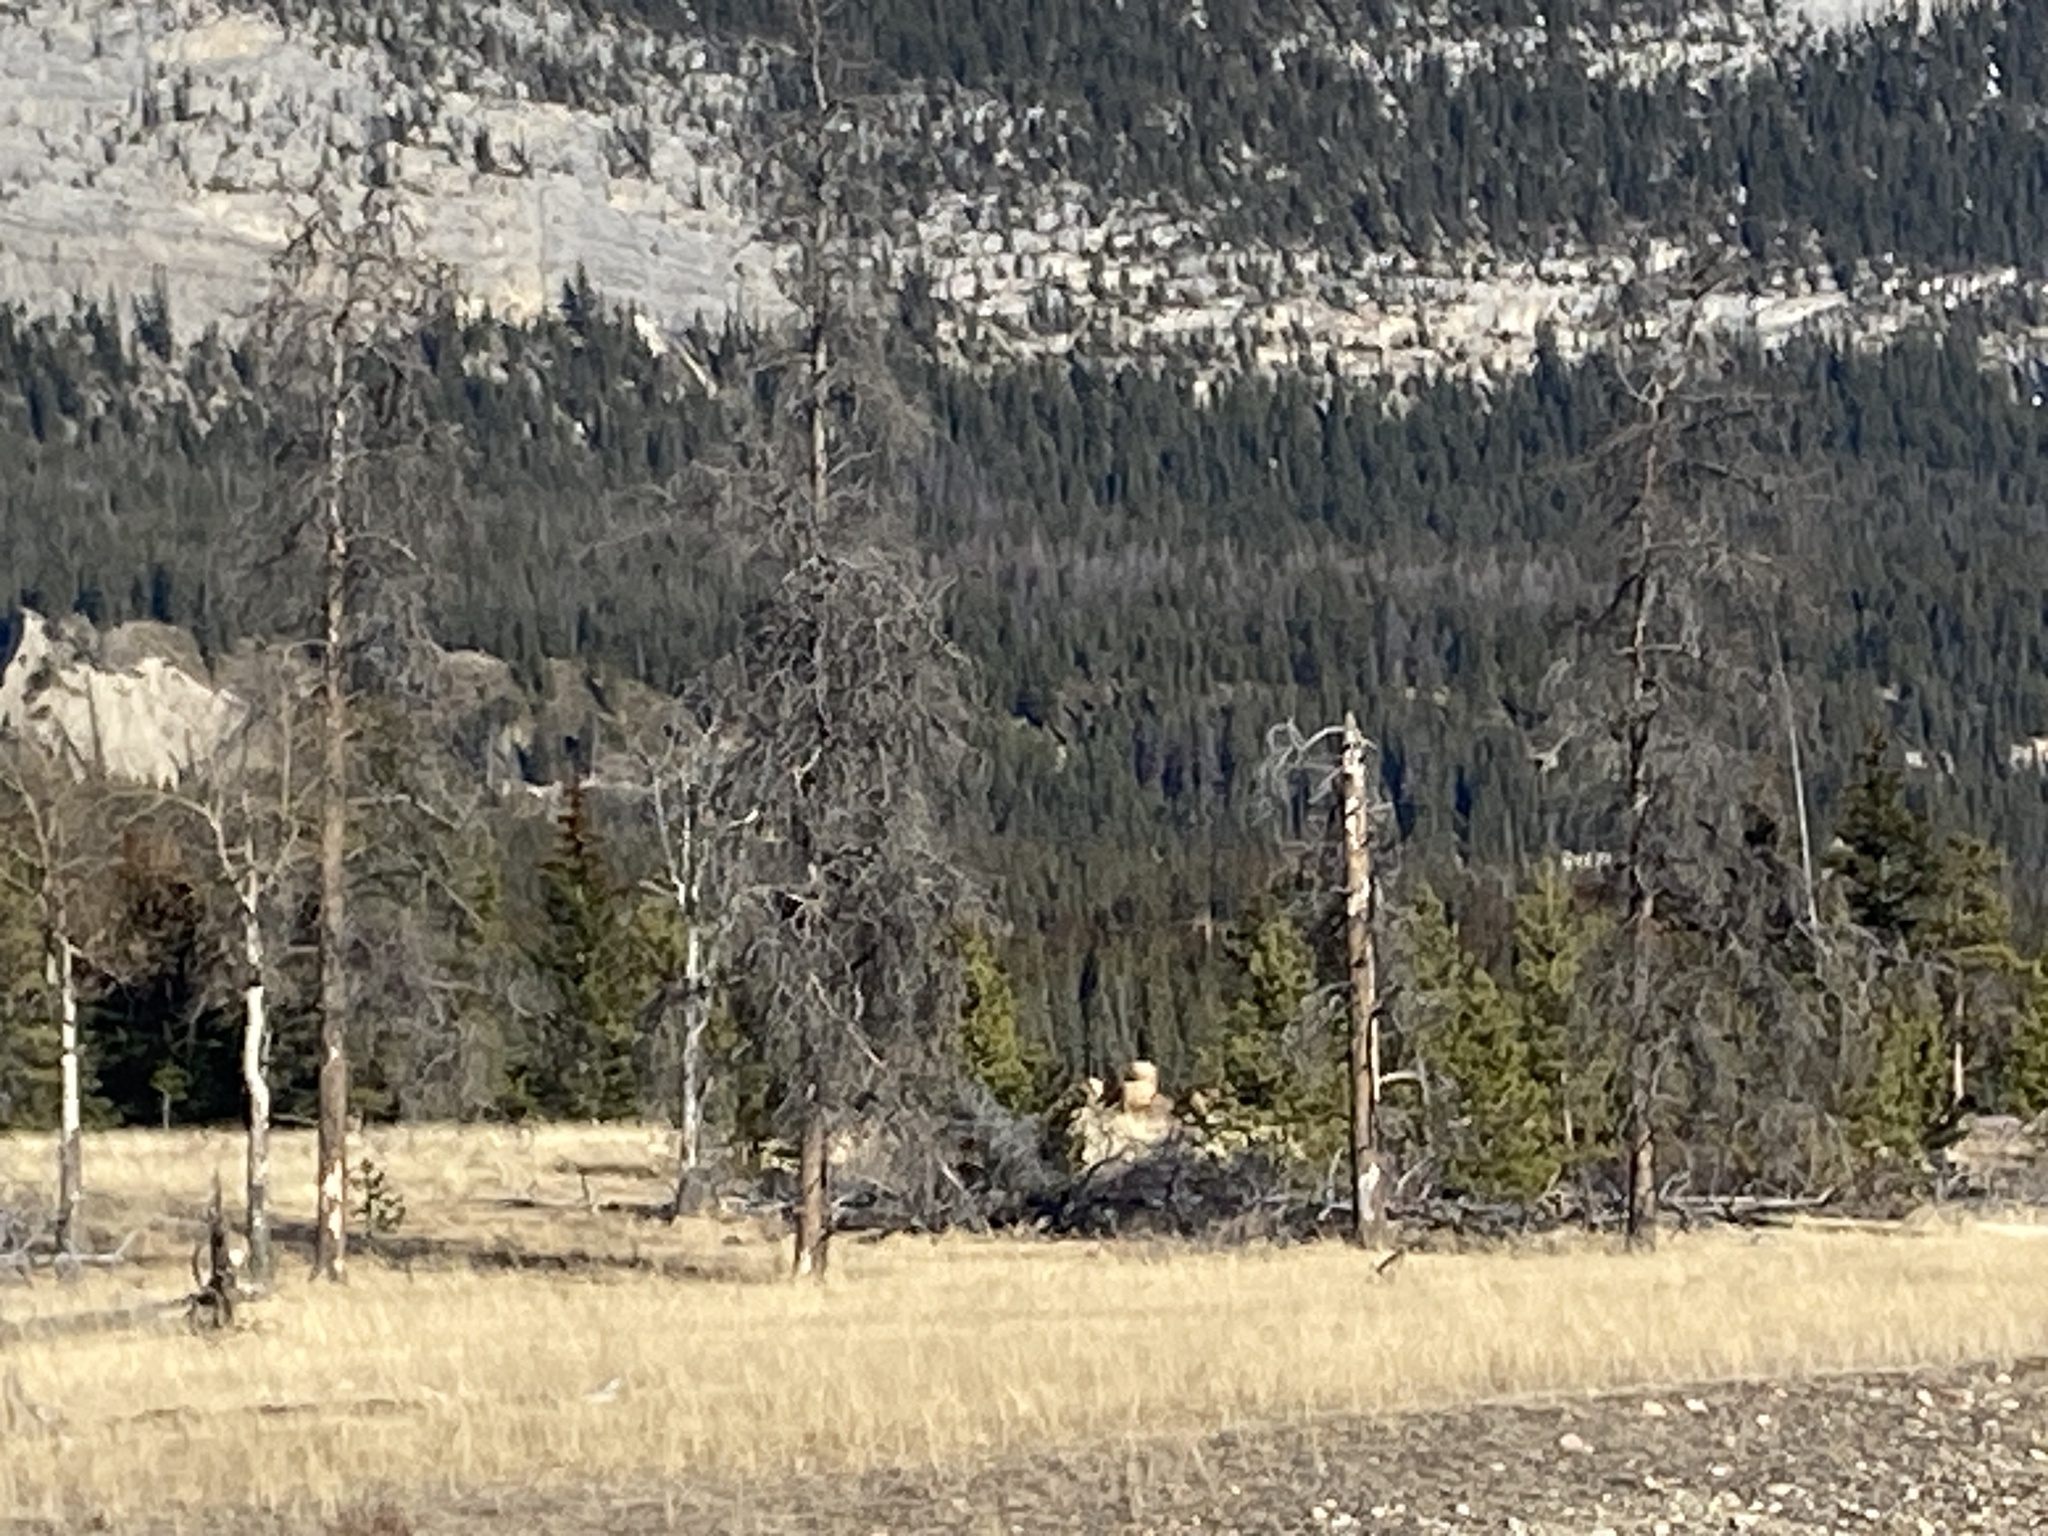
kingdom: Animalia
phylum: Chordata
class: Mammalia
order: Artiodactyla
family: Cervidae
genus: Cervus
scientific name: Cervus elaphus
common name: Red deer
